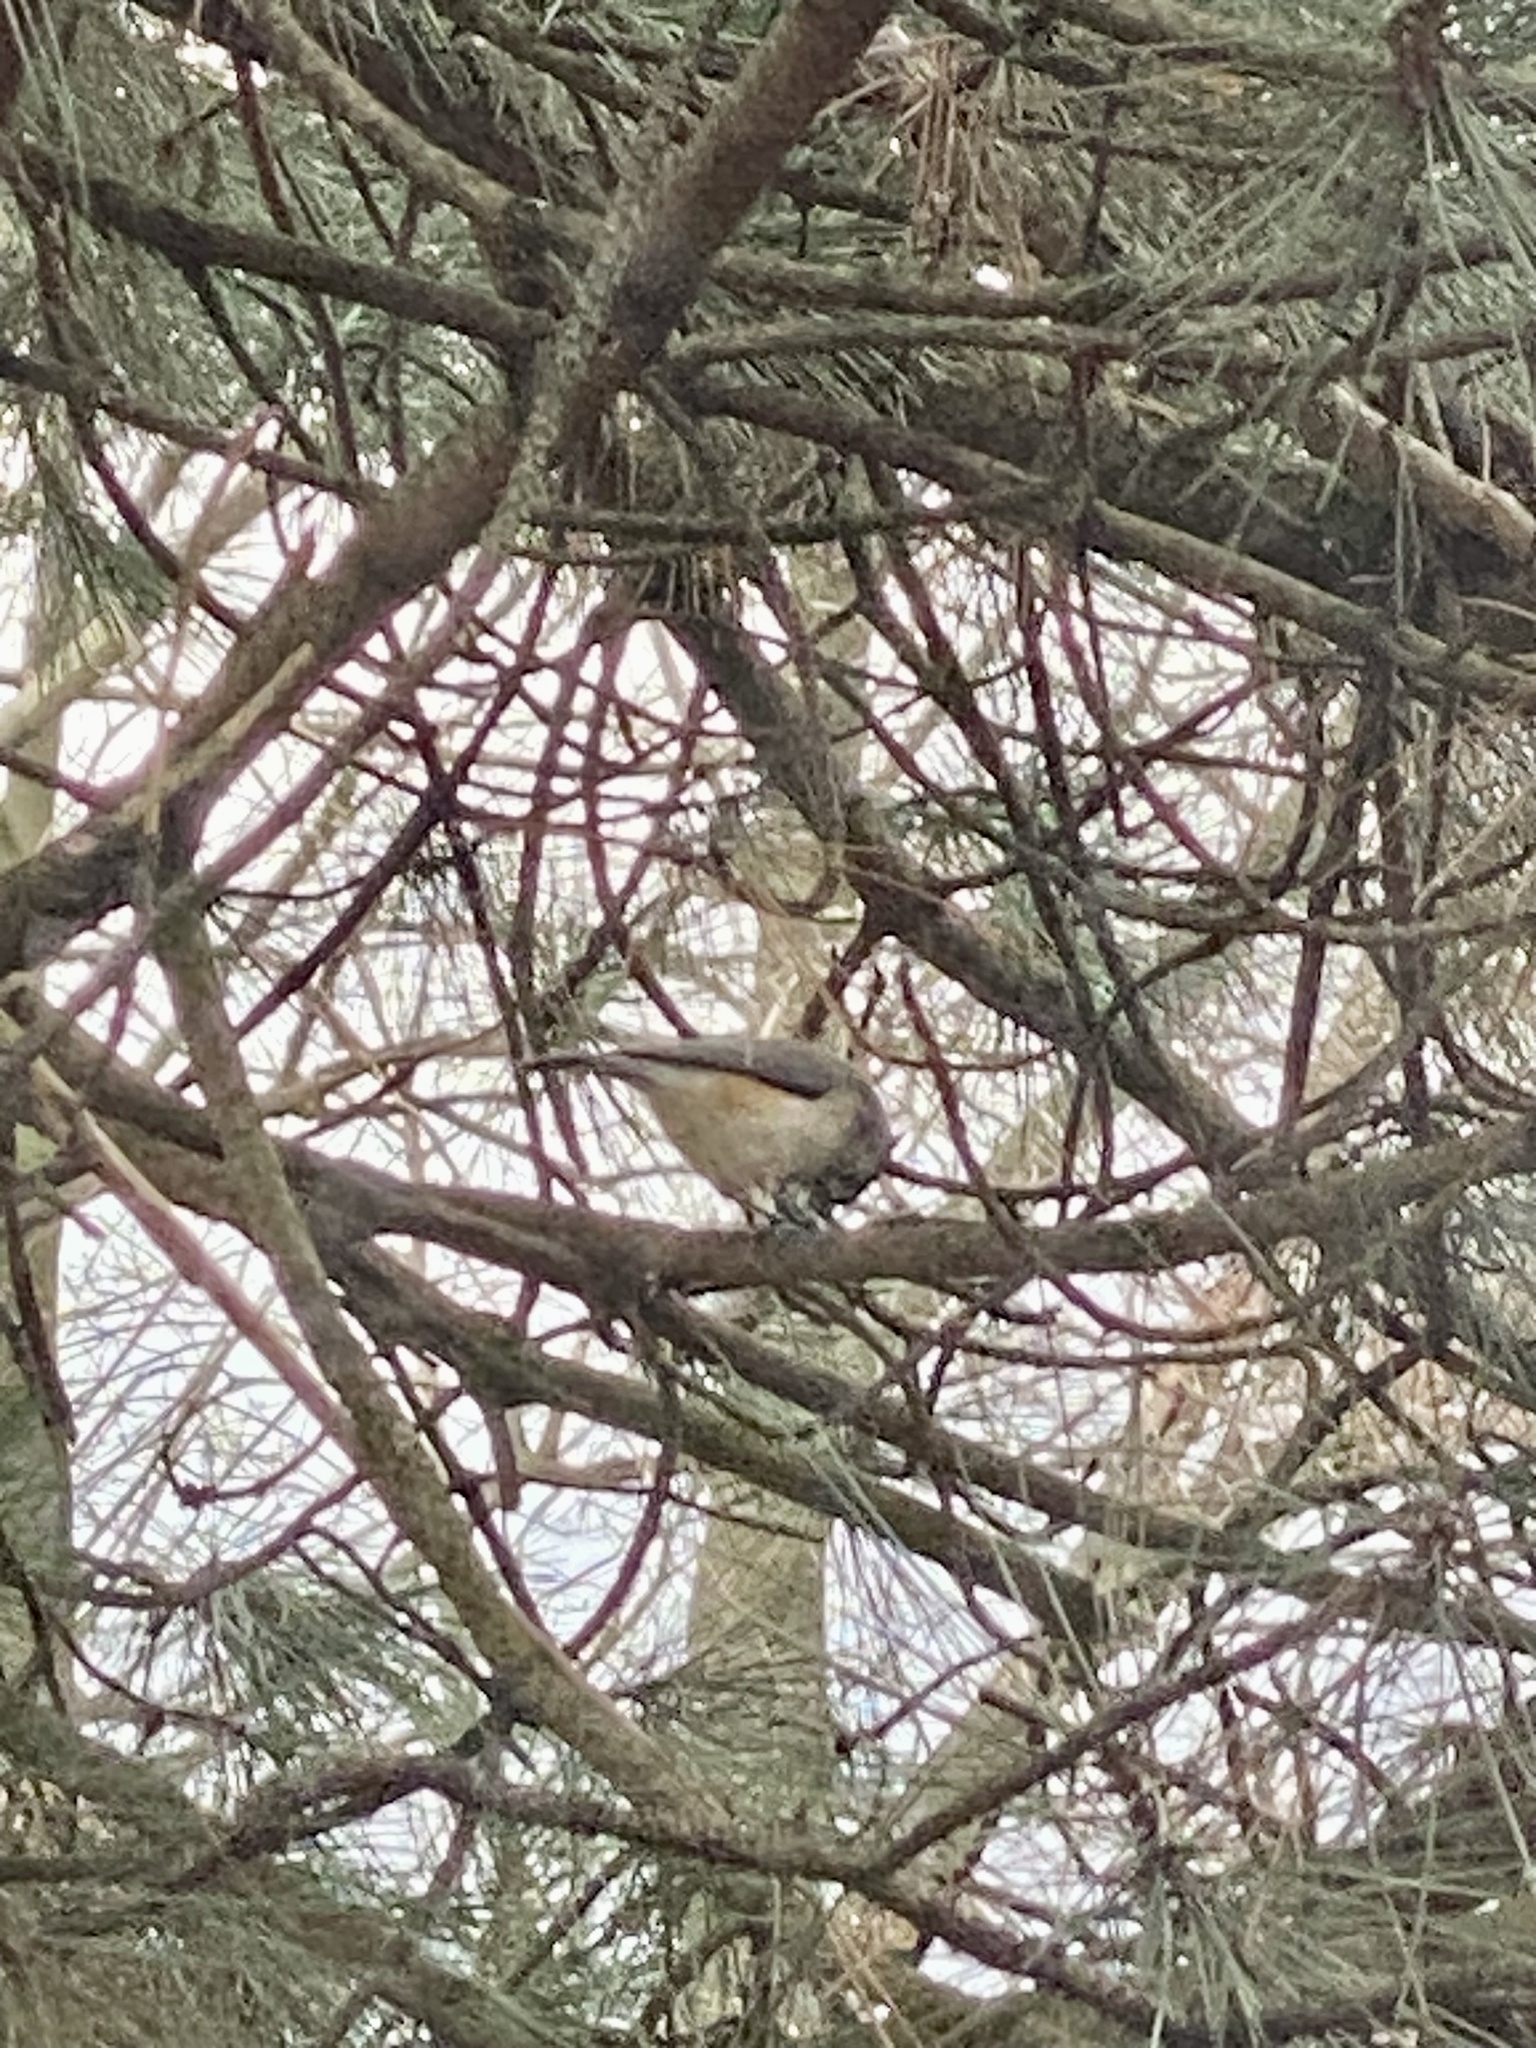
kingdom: Animalia
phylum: Chordata
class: Aves
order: Passeriformes
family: Paridae
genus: Baeolophus
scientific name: Baeolophus bicolor
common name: Tufted titmouse
